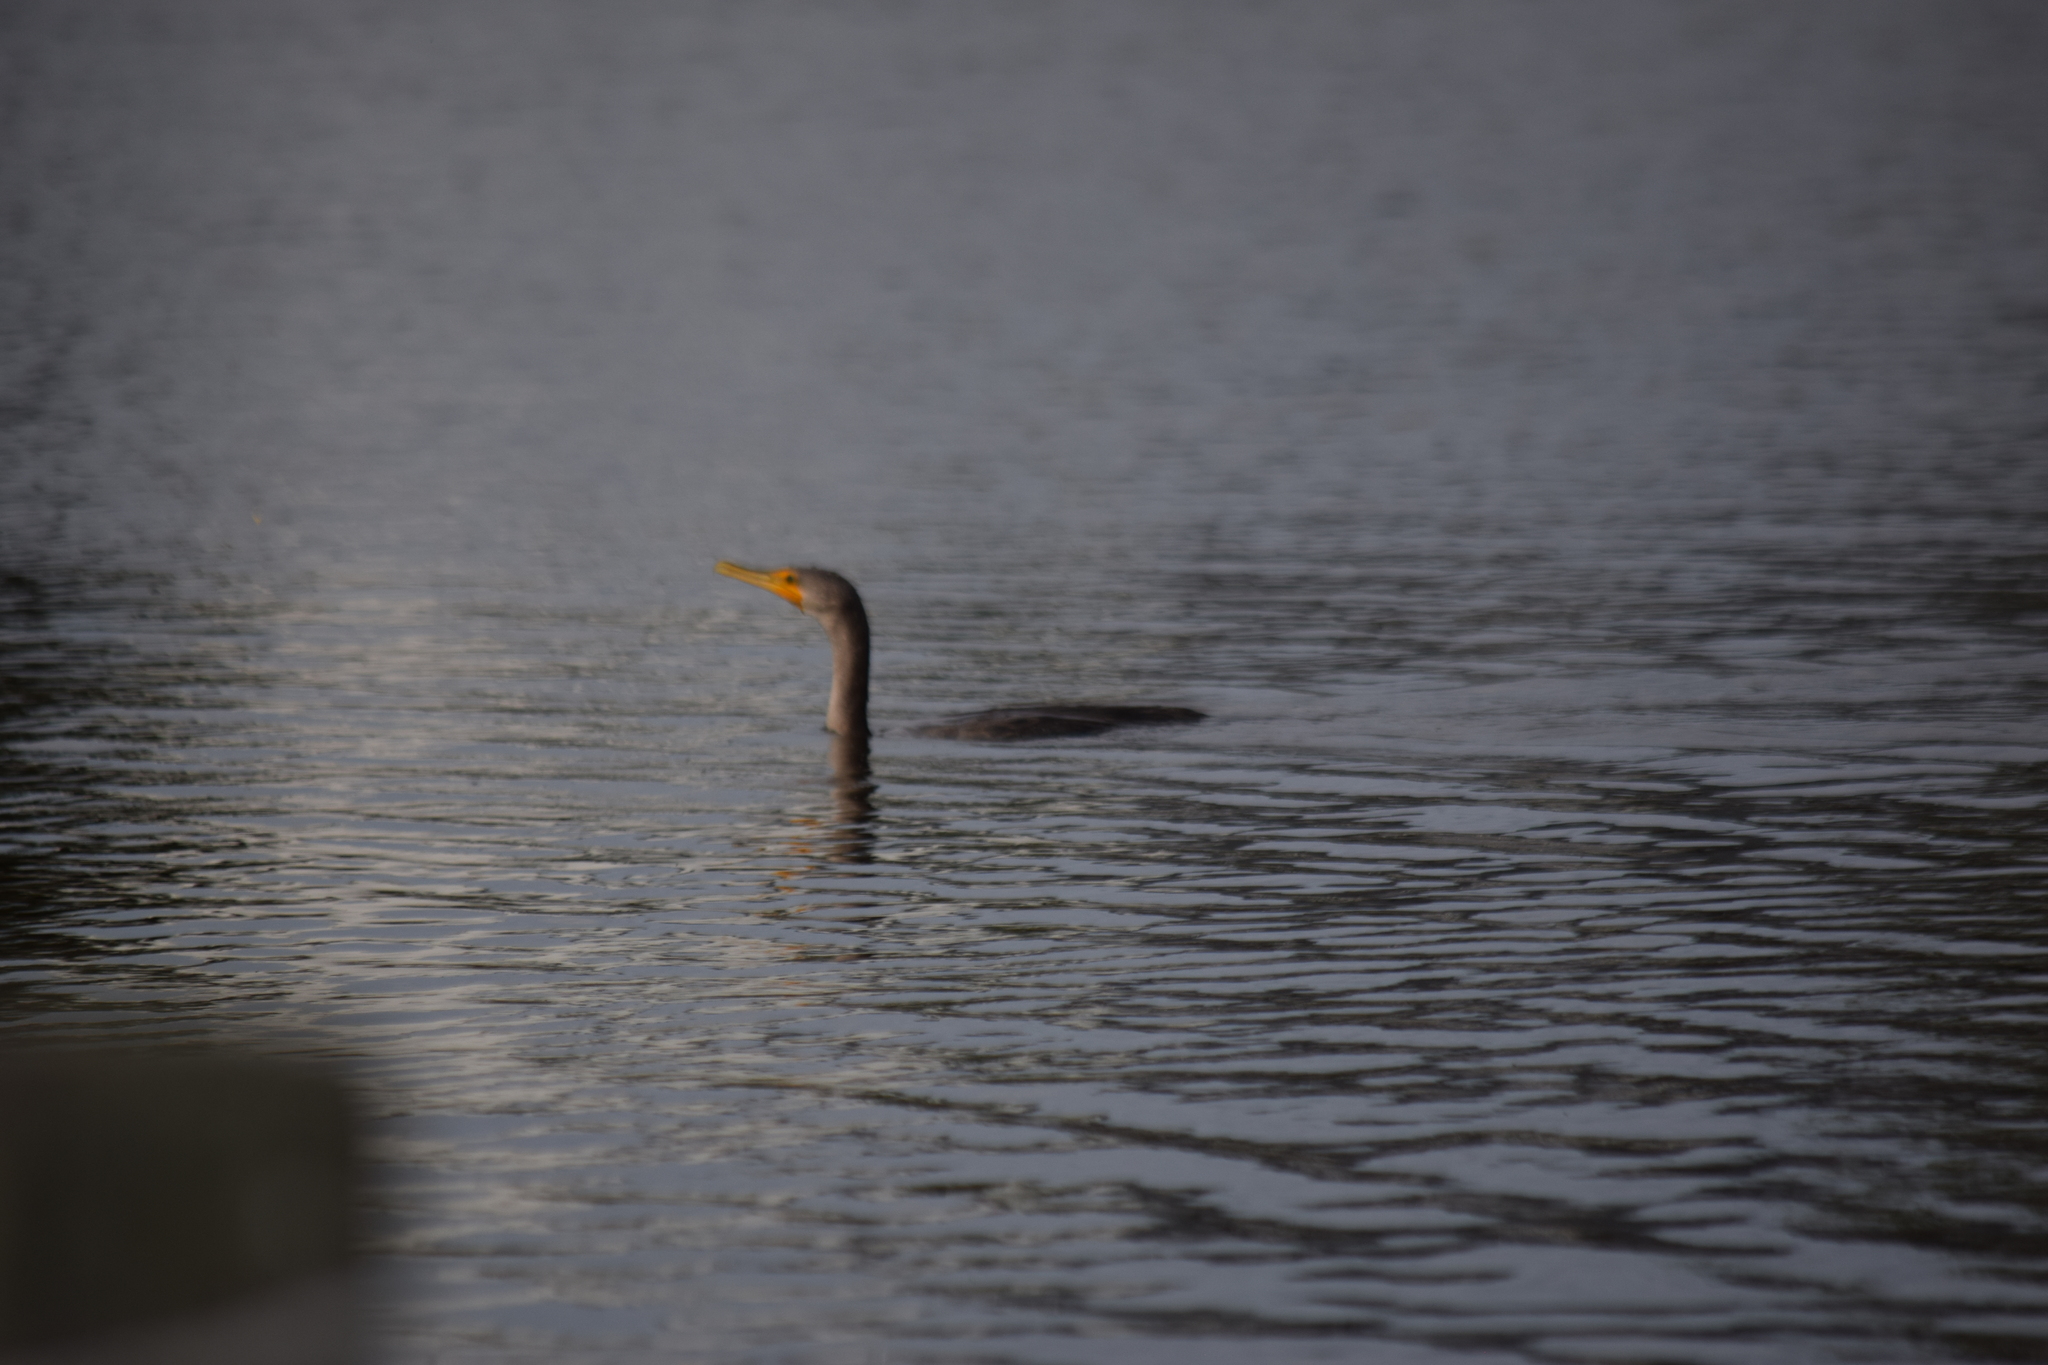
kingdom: Animalia
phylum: Chordata
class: Aves
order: Suliformes
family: Phalacrocoracidae
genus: Phalacrocorax
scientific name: Phalacrocorax auritus
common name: Double-crested cormorant
